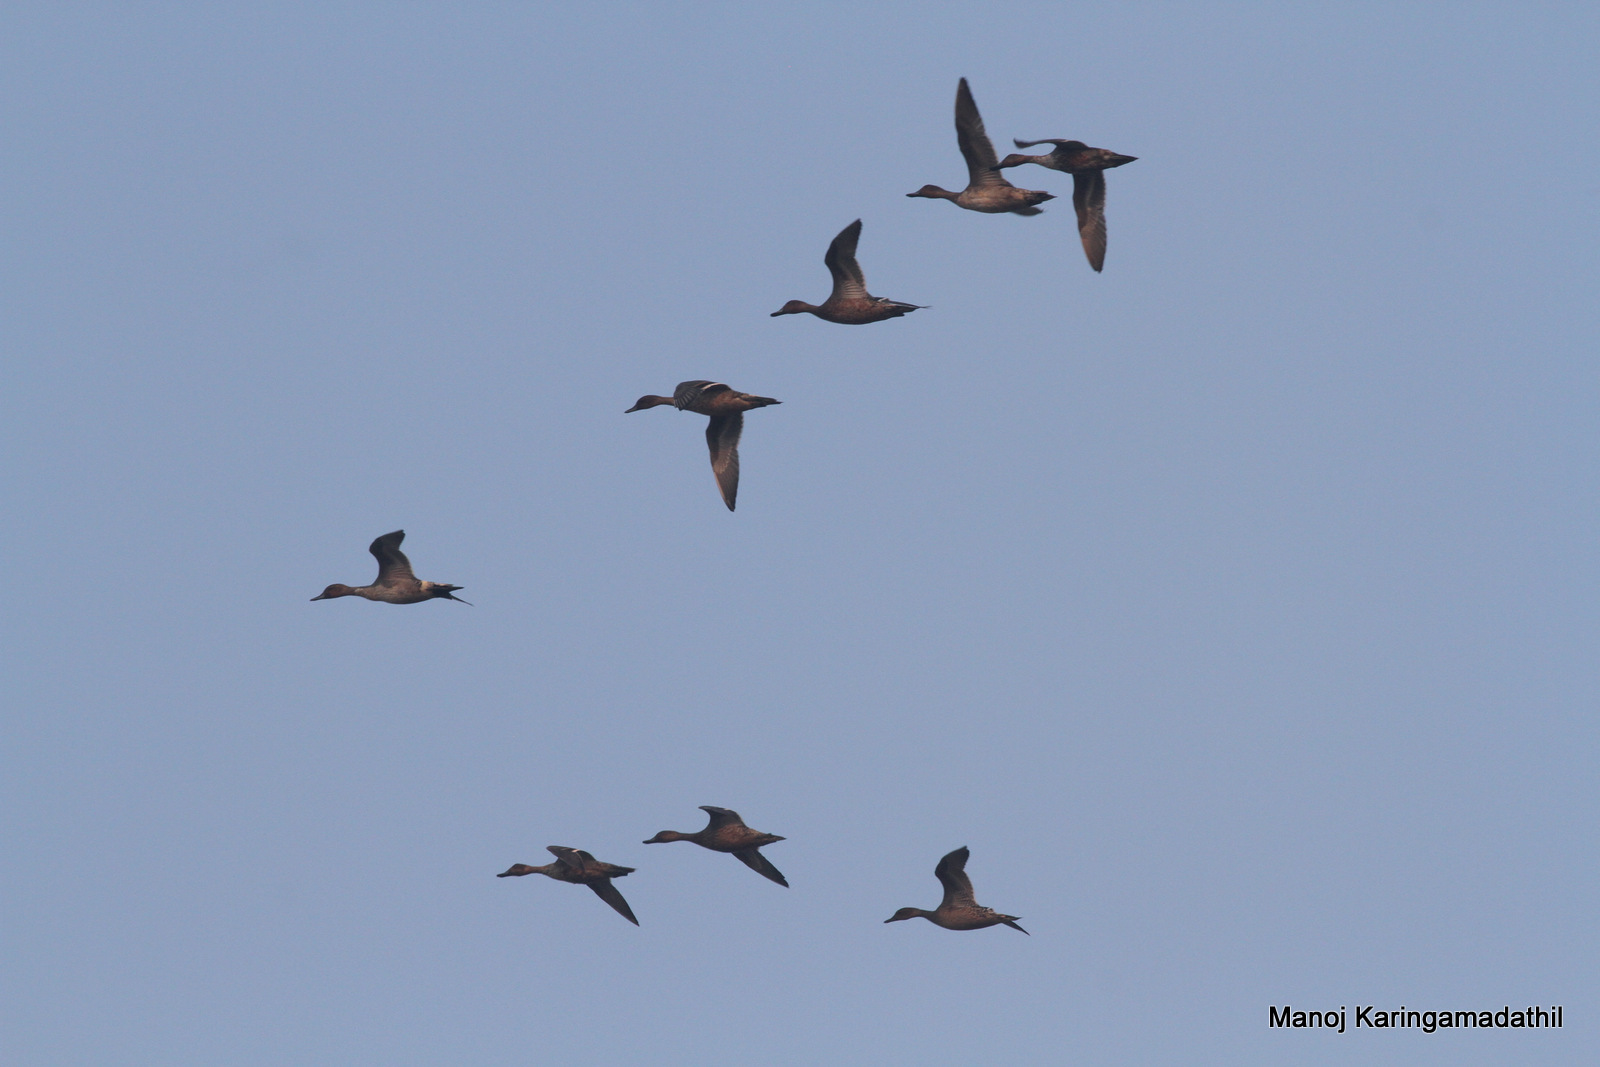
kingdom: Animalia
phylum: Chordata
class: Aves
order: Anseriformes
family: Anatidae
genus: Anas
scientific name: Anas acuta
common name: Northern pintail
